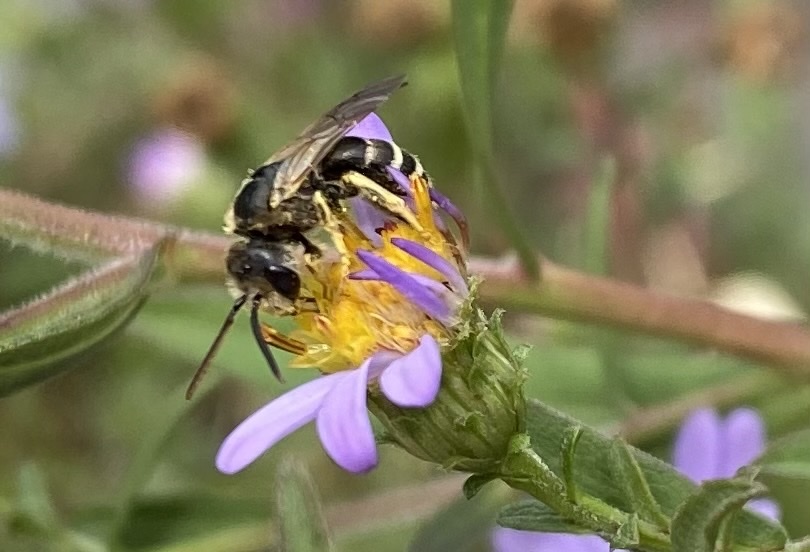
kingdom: Animalia
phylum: Arthropoda
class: Insecta
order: Hymenoptera
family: Halictidae
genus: Halictus
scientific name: Halictus ligatus
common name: Ligated furrow bee
